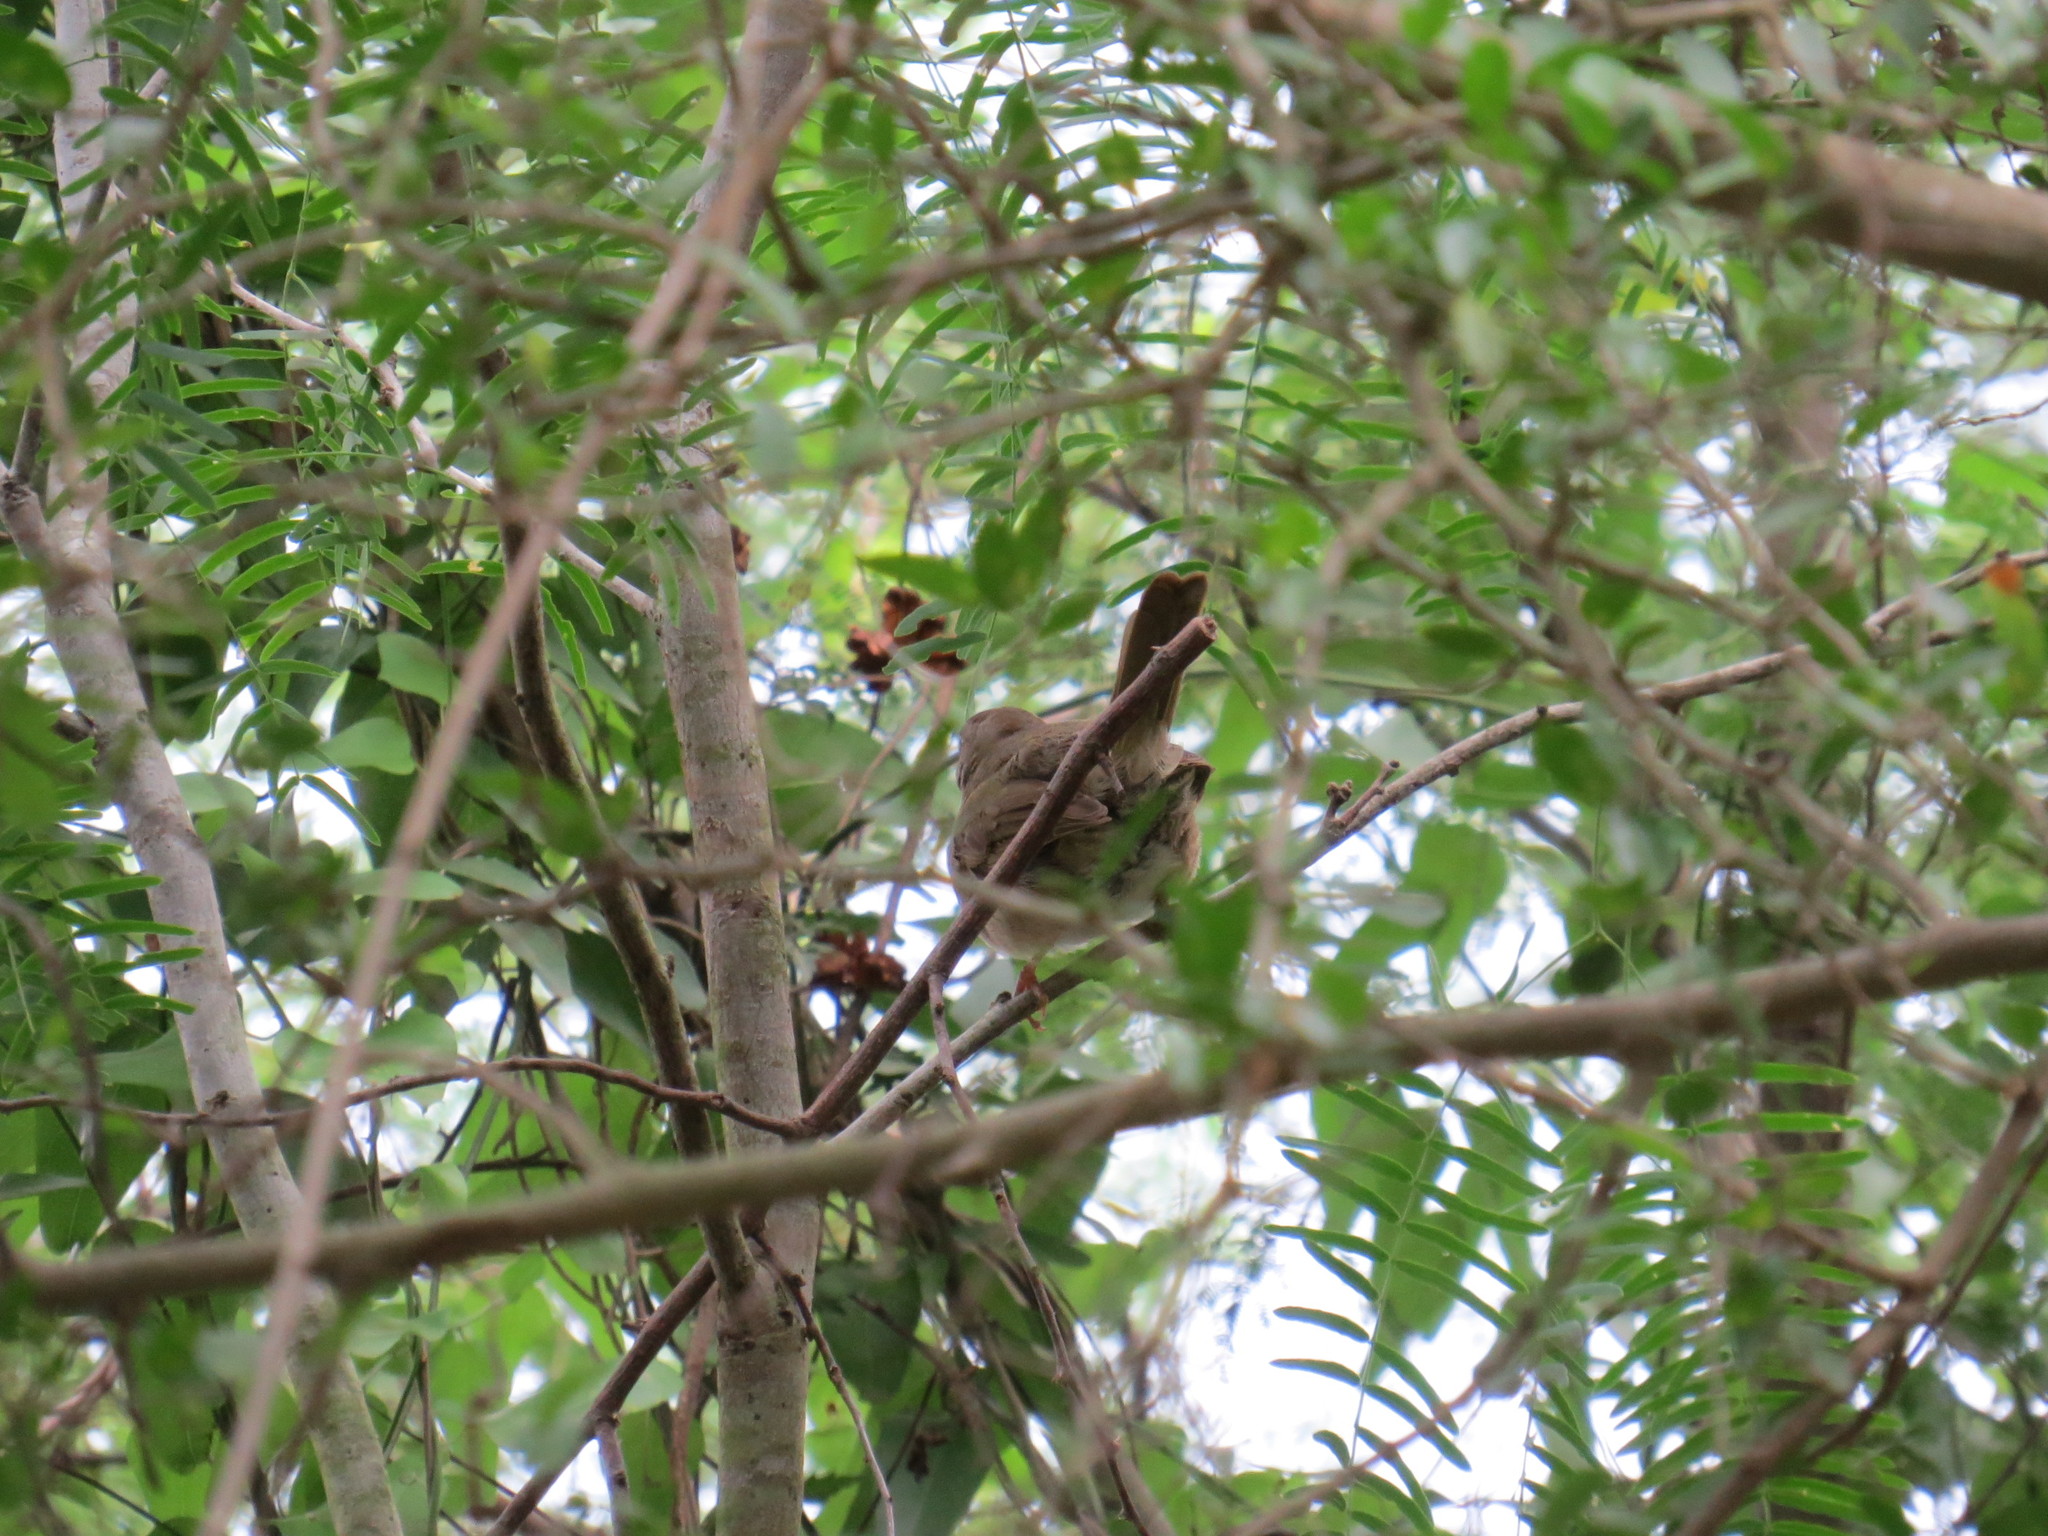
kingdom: Animalia
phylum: Chordata
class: Aves
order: Passeriformes
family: Passerellidae
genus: Arremonops
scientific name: Arremonops rufivirgatus
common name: Olive sparrow
